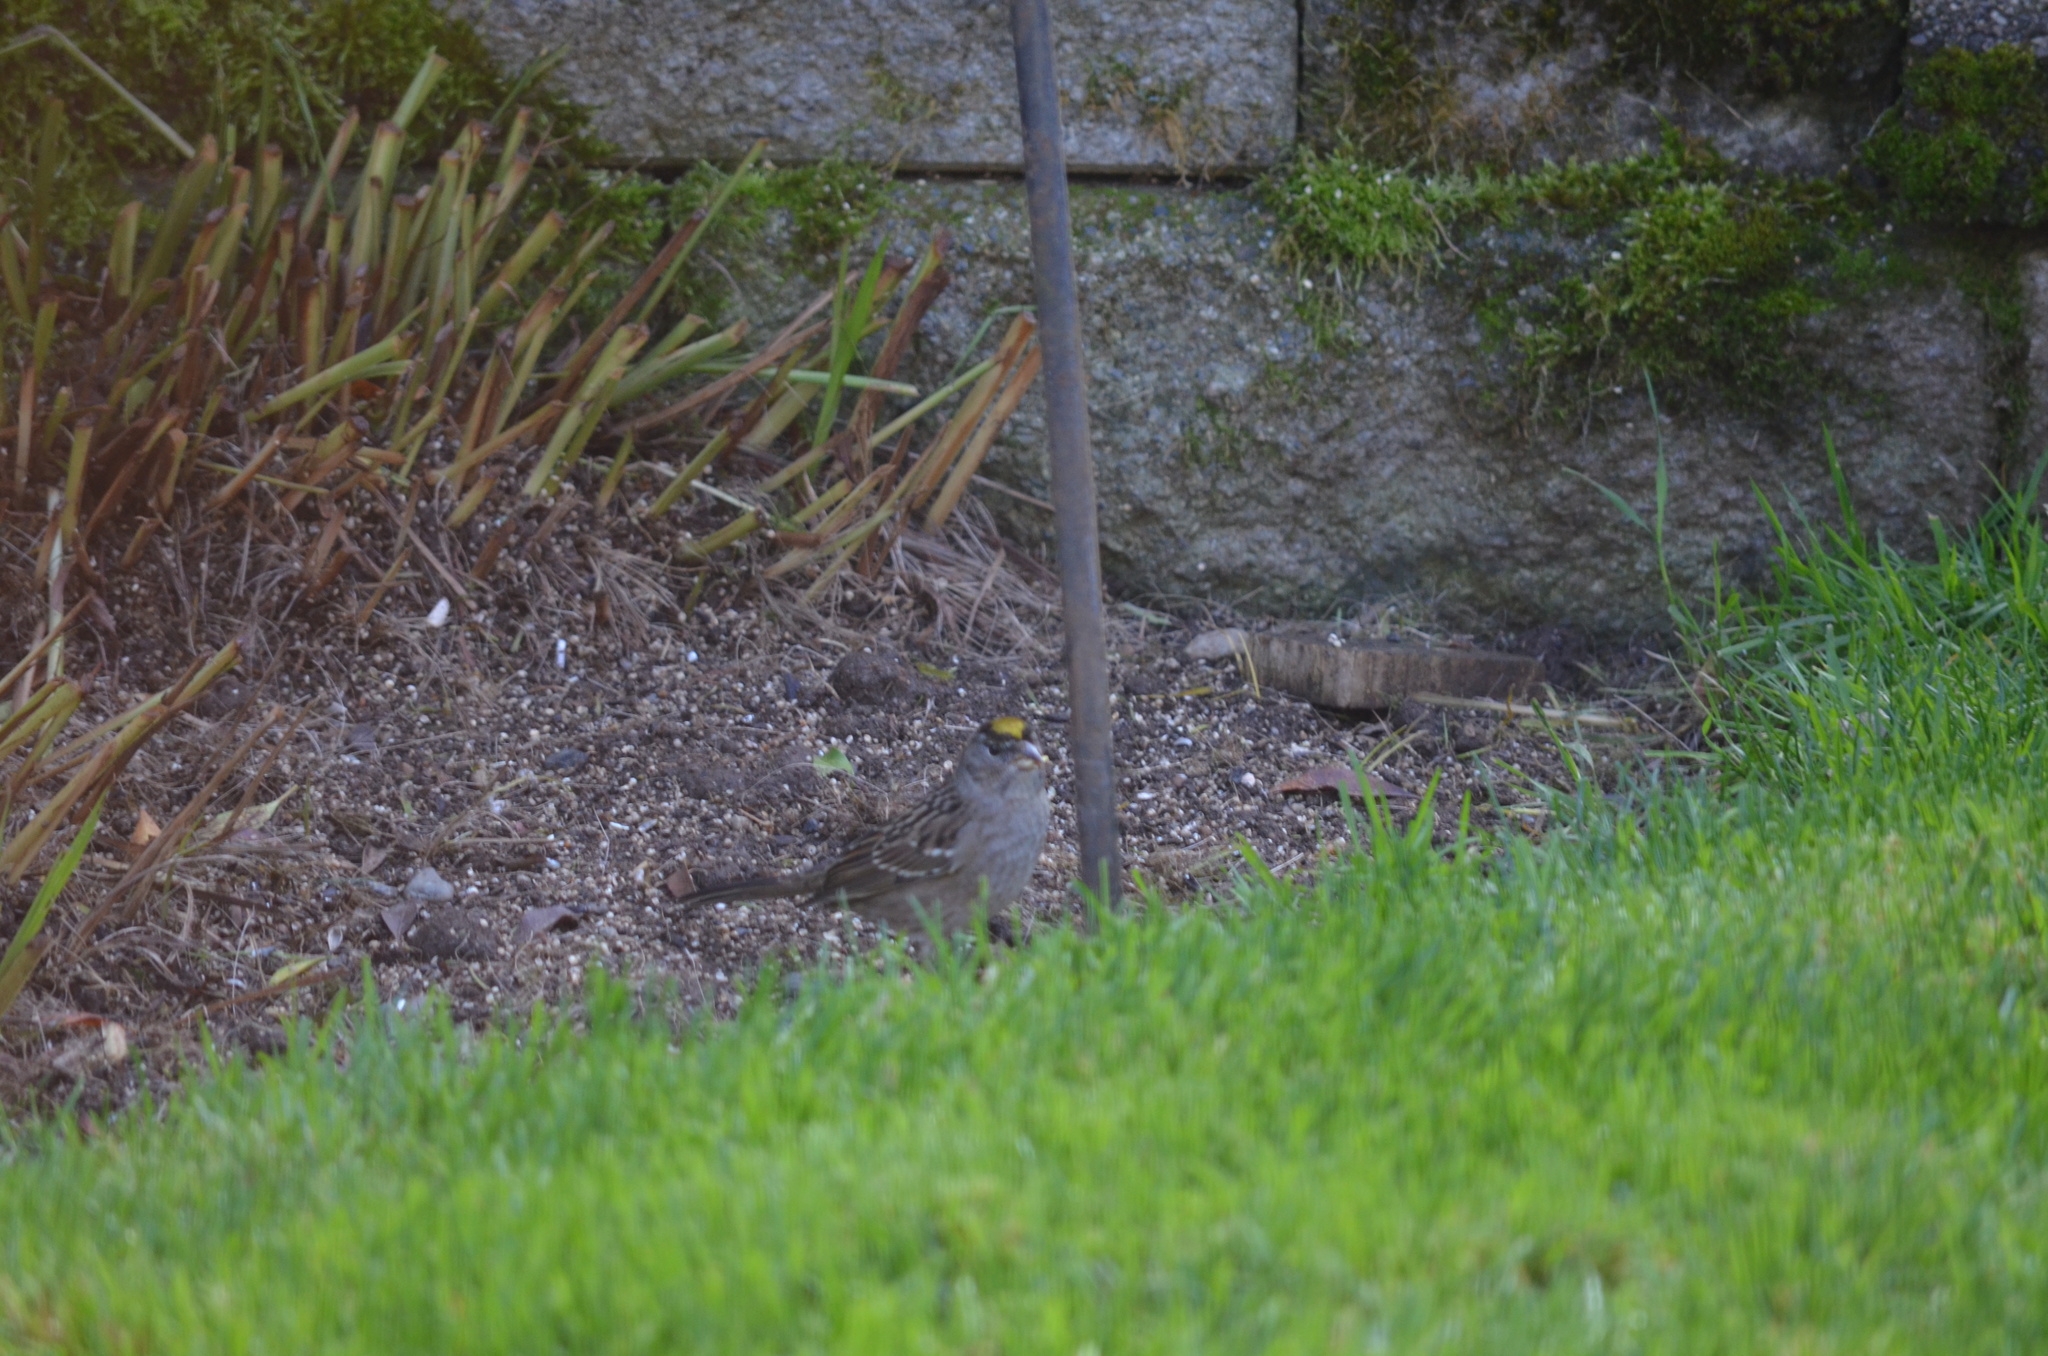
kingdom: Animalia
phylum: Chordata
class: Aves
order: Passeriformes
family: Passerellidae
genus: Zonotrichia
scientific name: Zonotrichia atricapilla
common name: Golden-crowned sparrow
